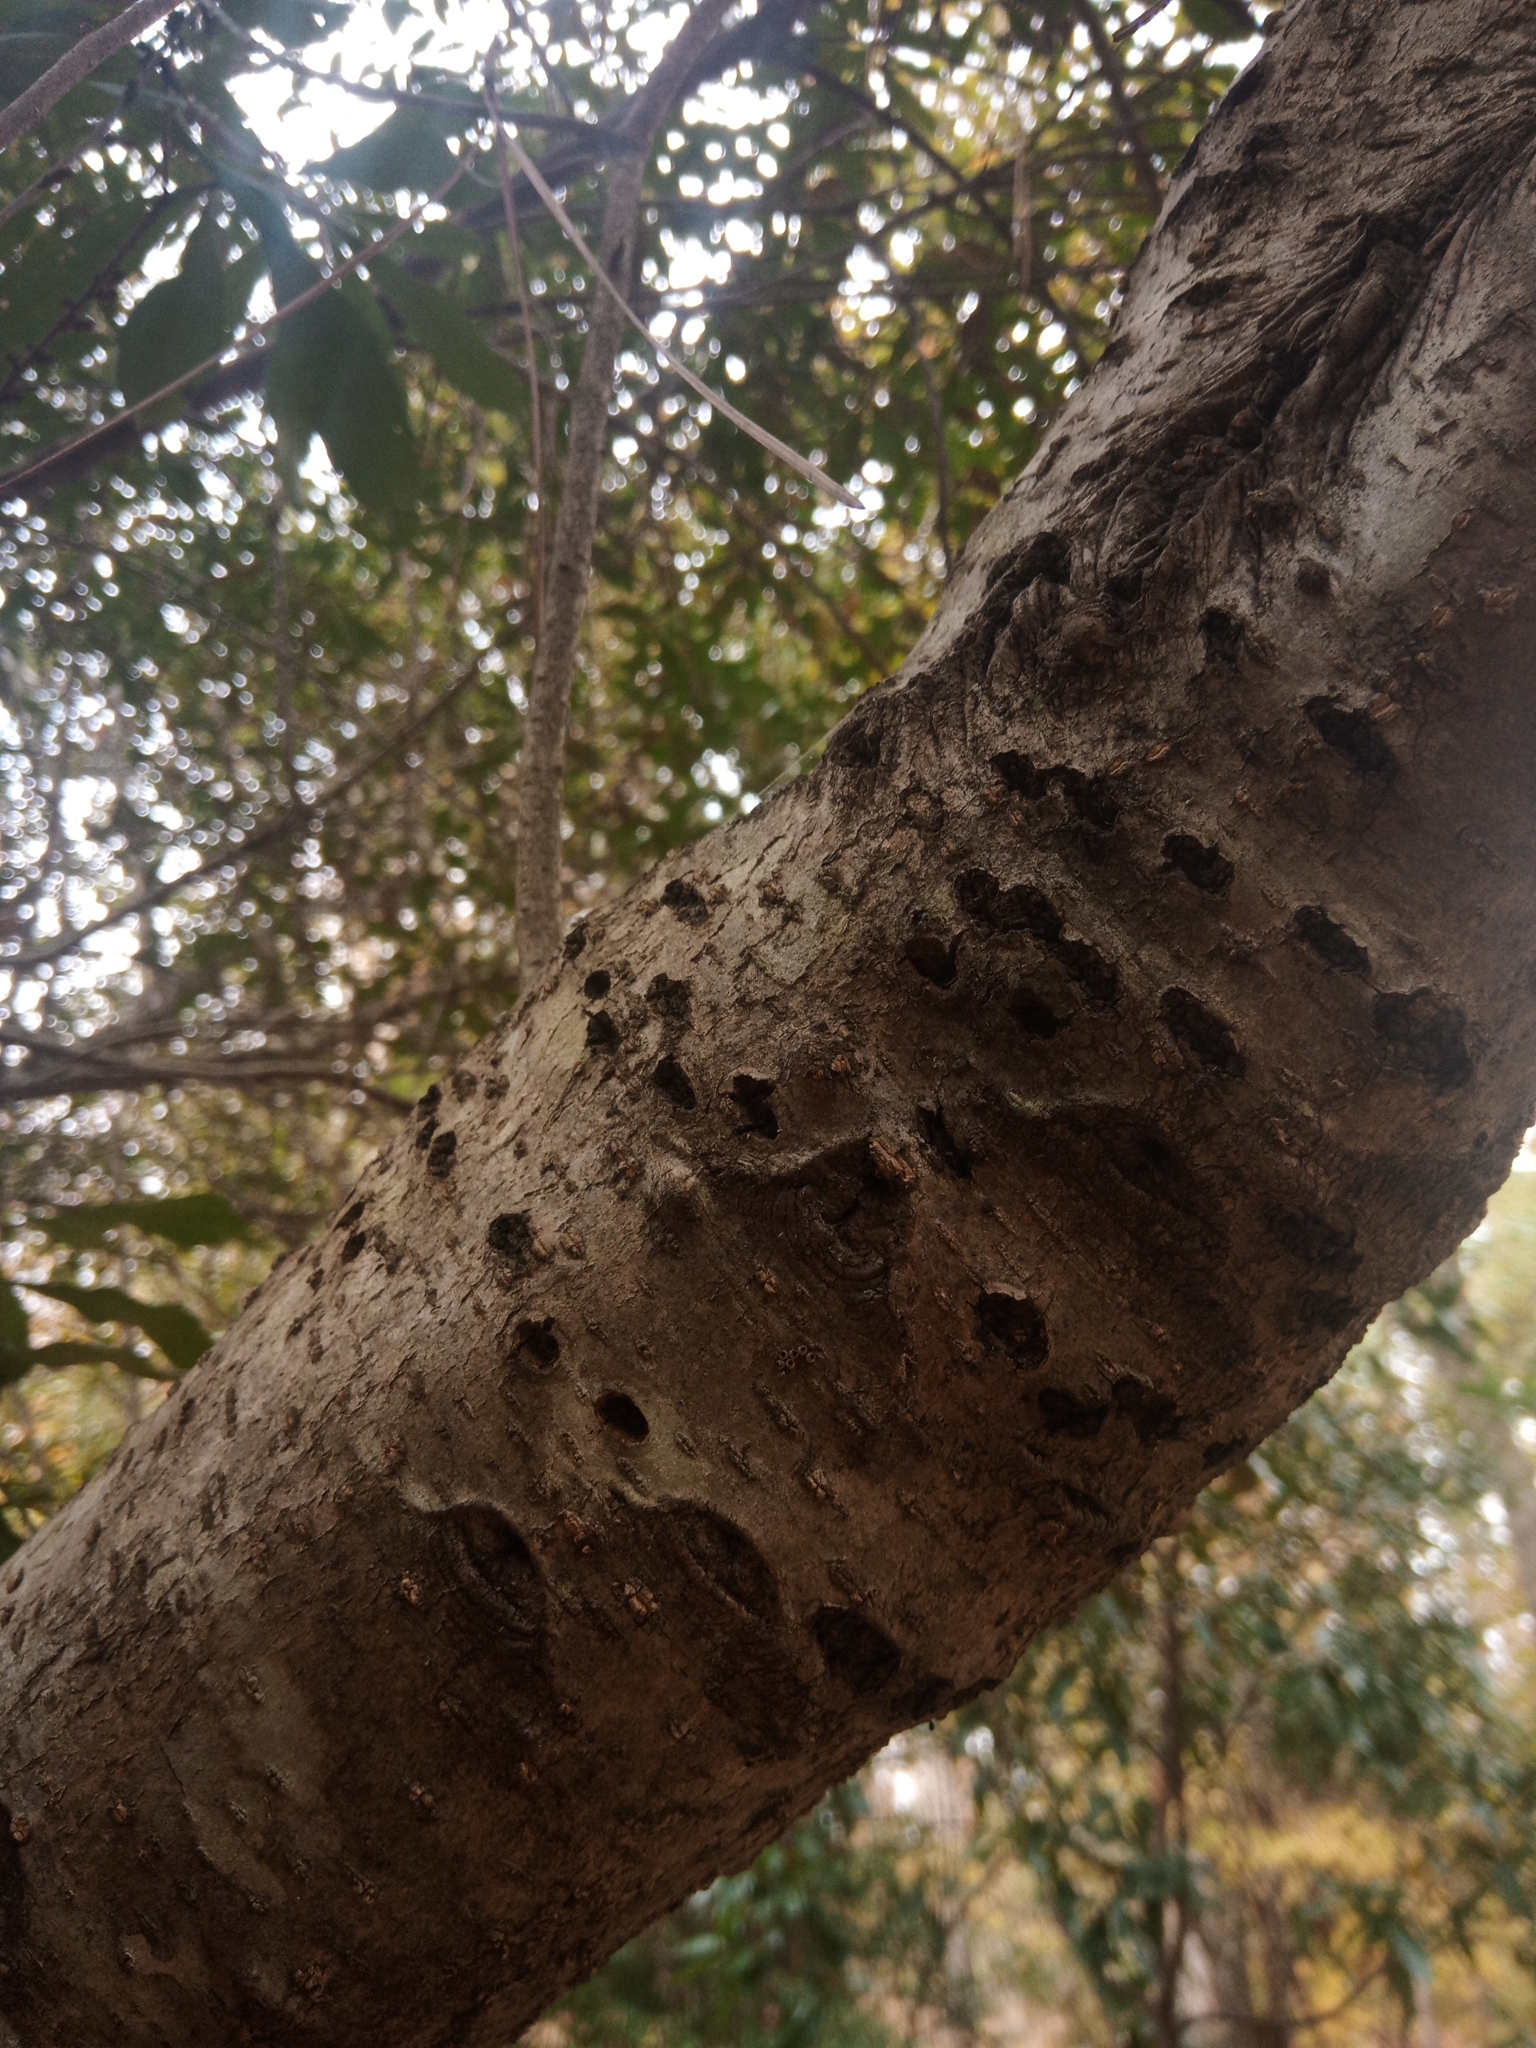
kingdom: Animalia
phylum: Chordata
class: Aves
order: Piciformes
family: Picidae
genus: Sphyrapicus
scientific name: Sphyrapicus varius
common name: Yellow-bellied sapsucker
